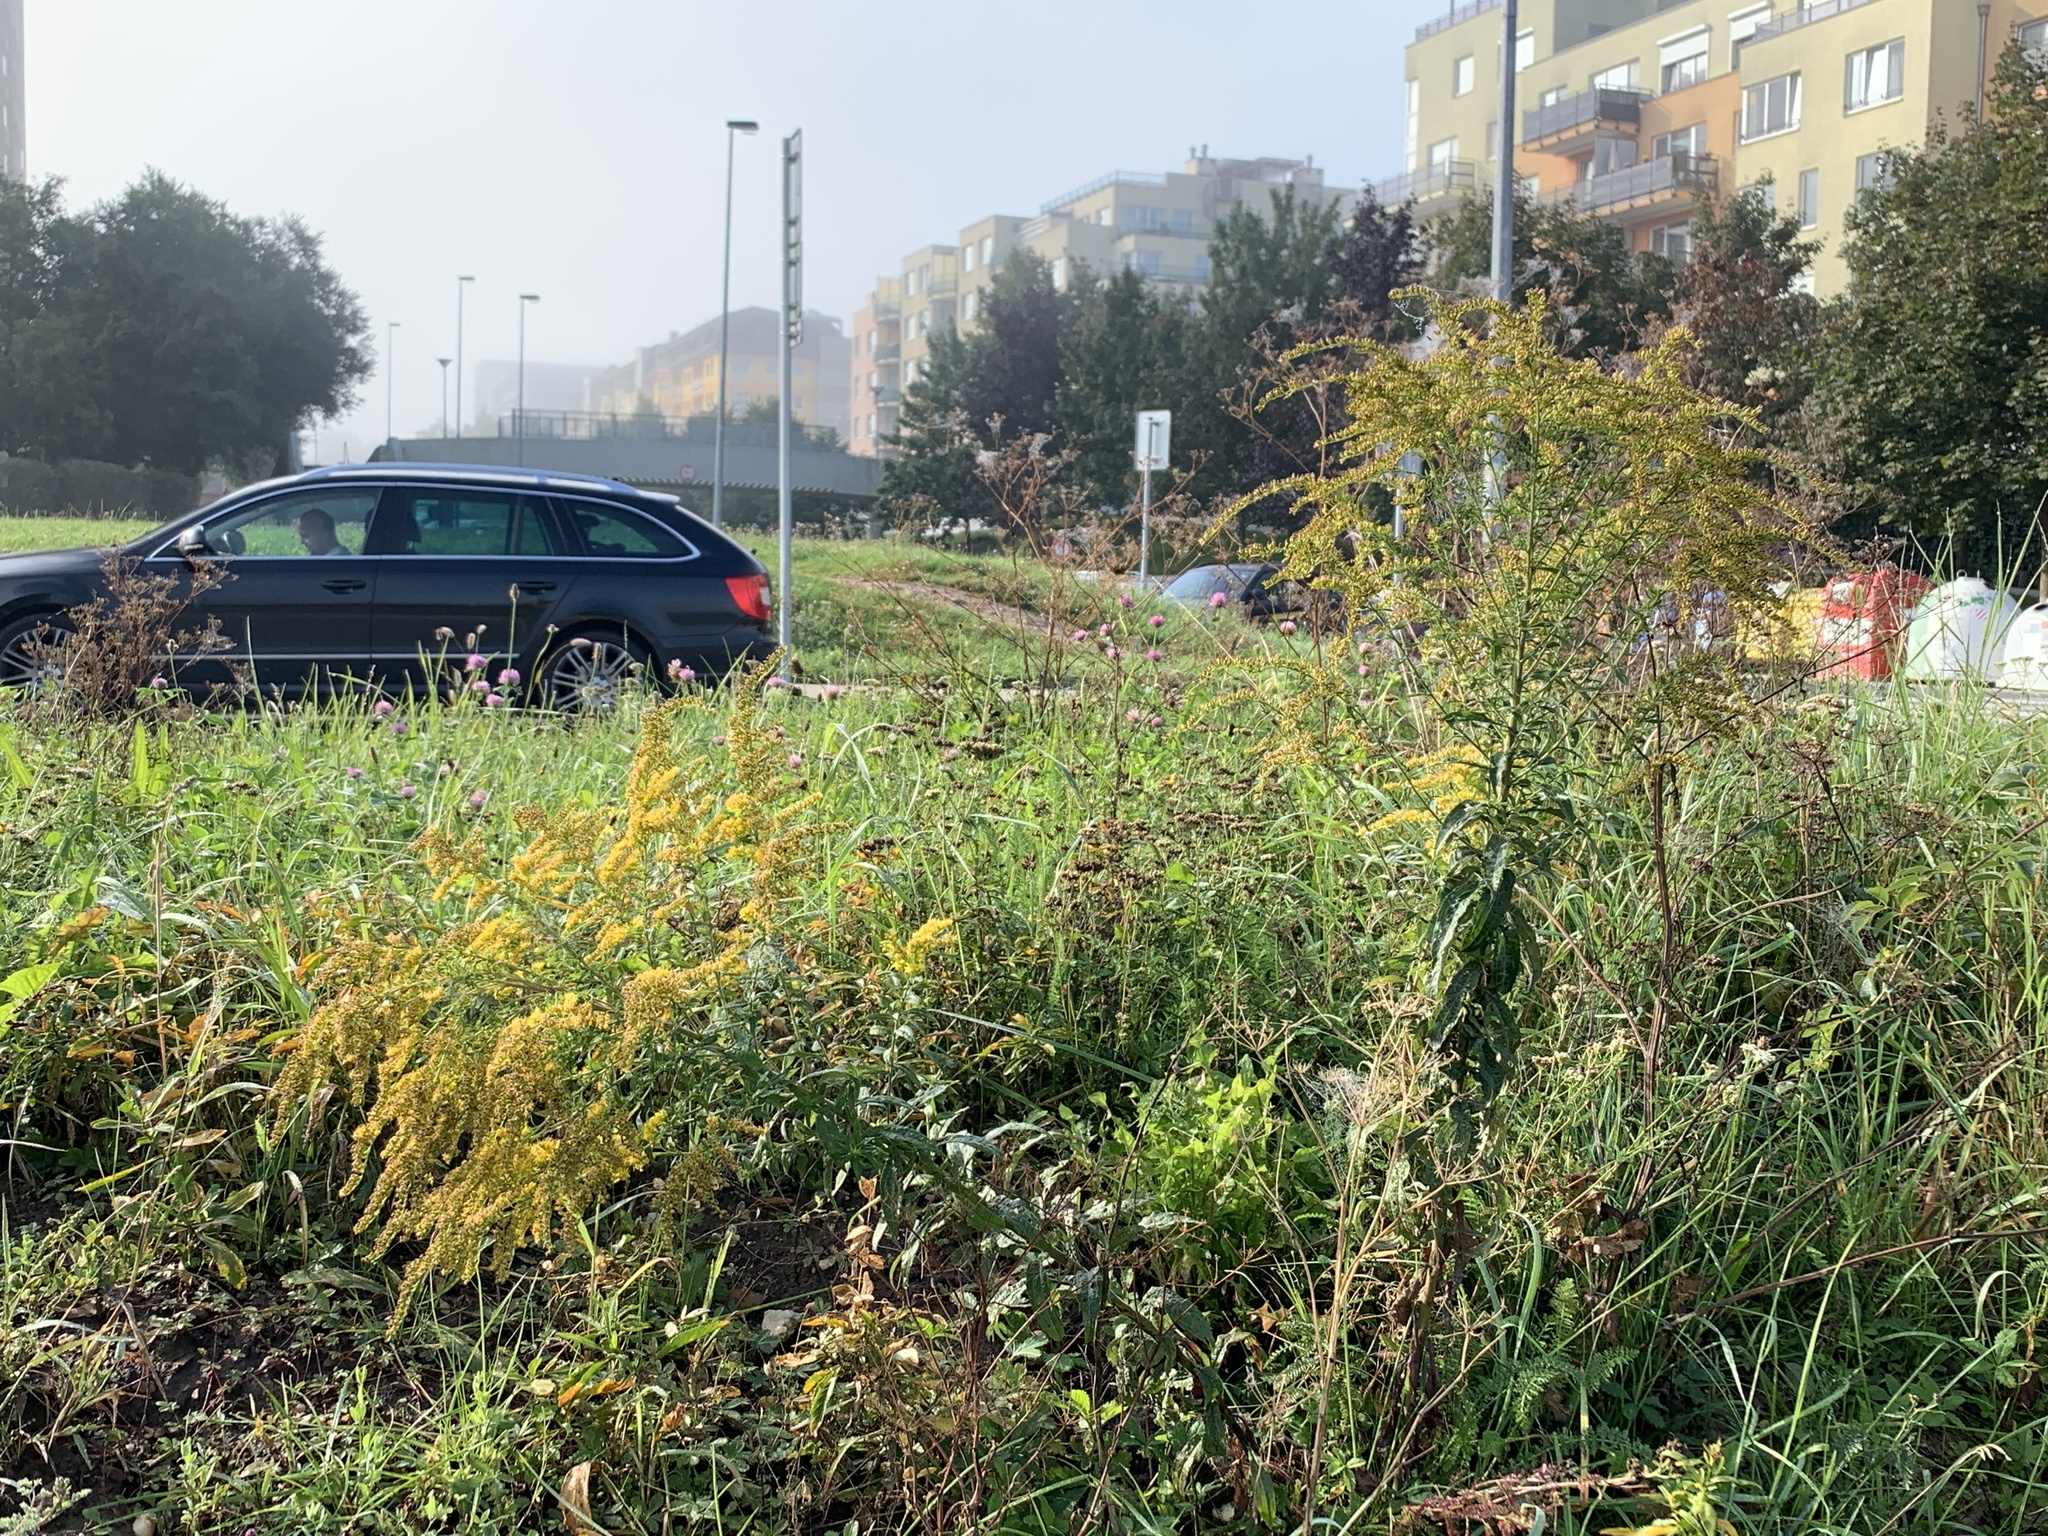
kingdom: Plantae
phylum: Tracheophyta
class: Magnoliopsida
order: Asterales
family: Asteraceae
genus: Solidago
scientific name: Solidago canadensis
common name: Canada goldenrod
